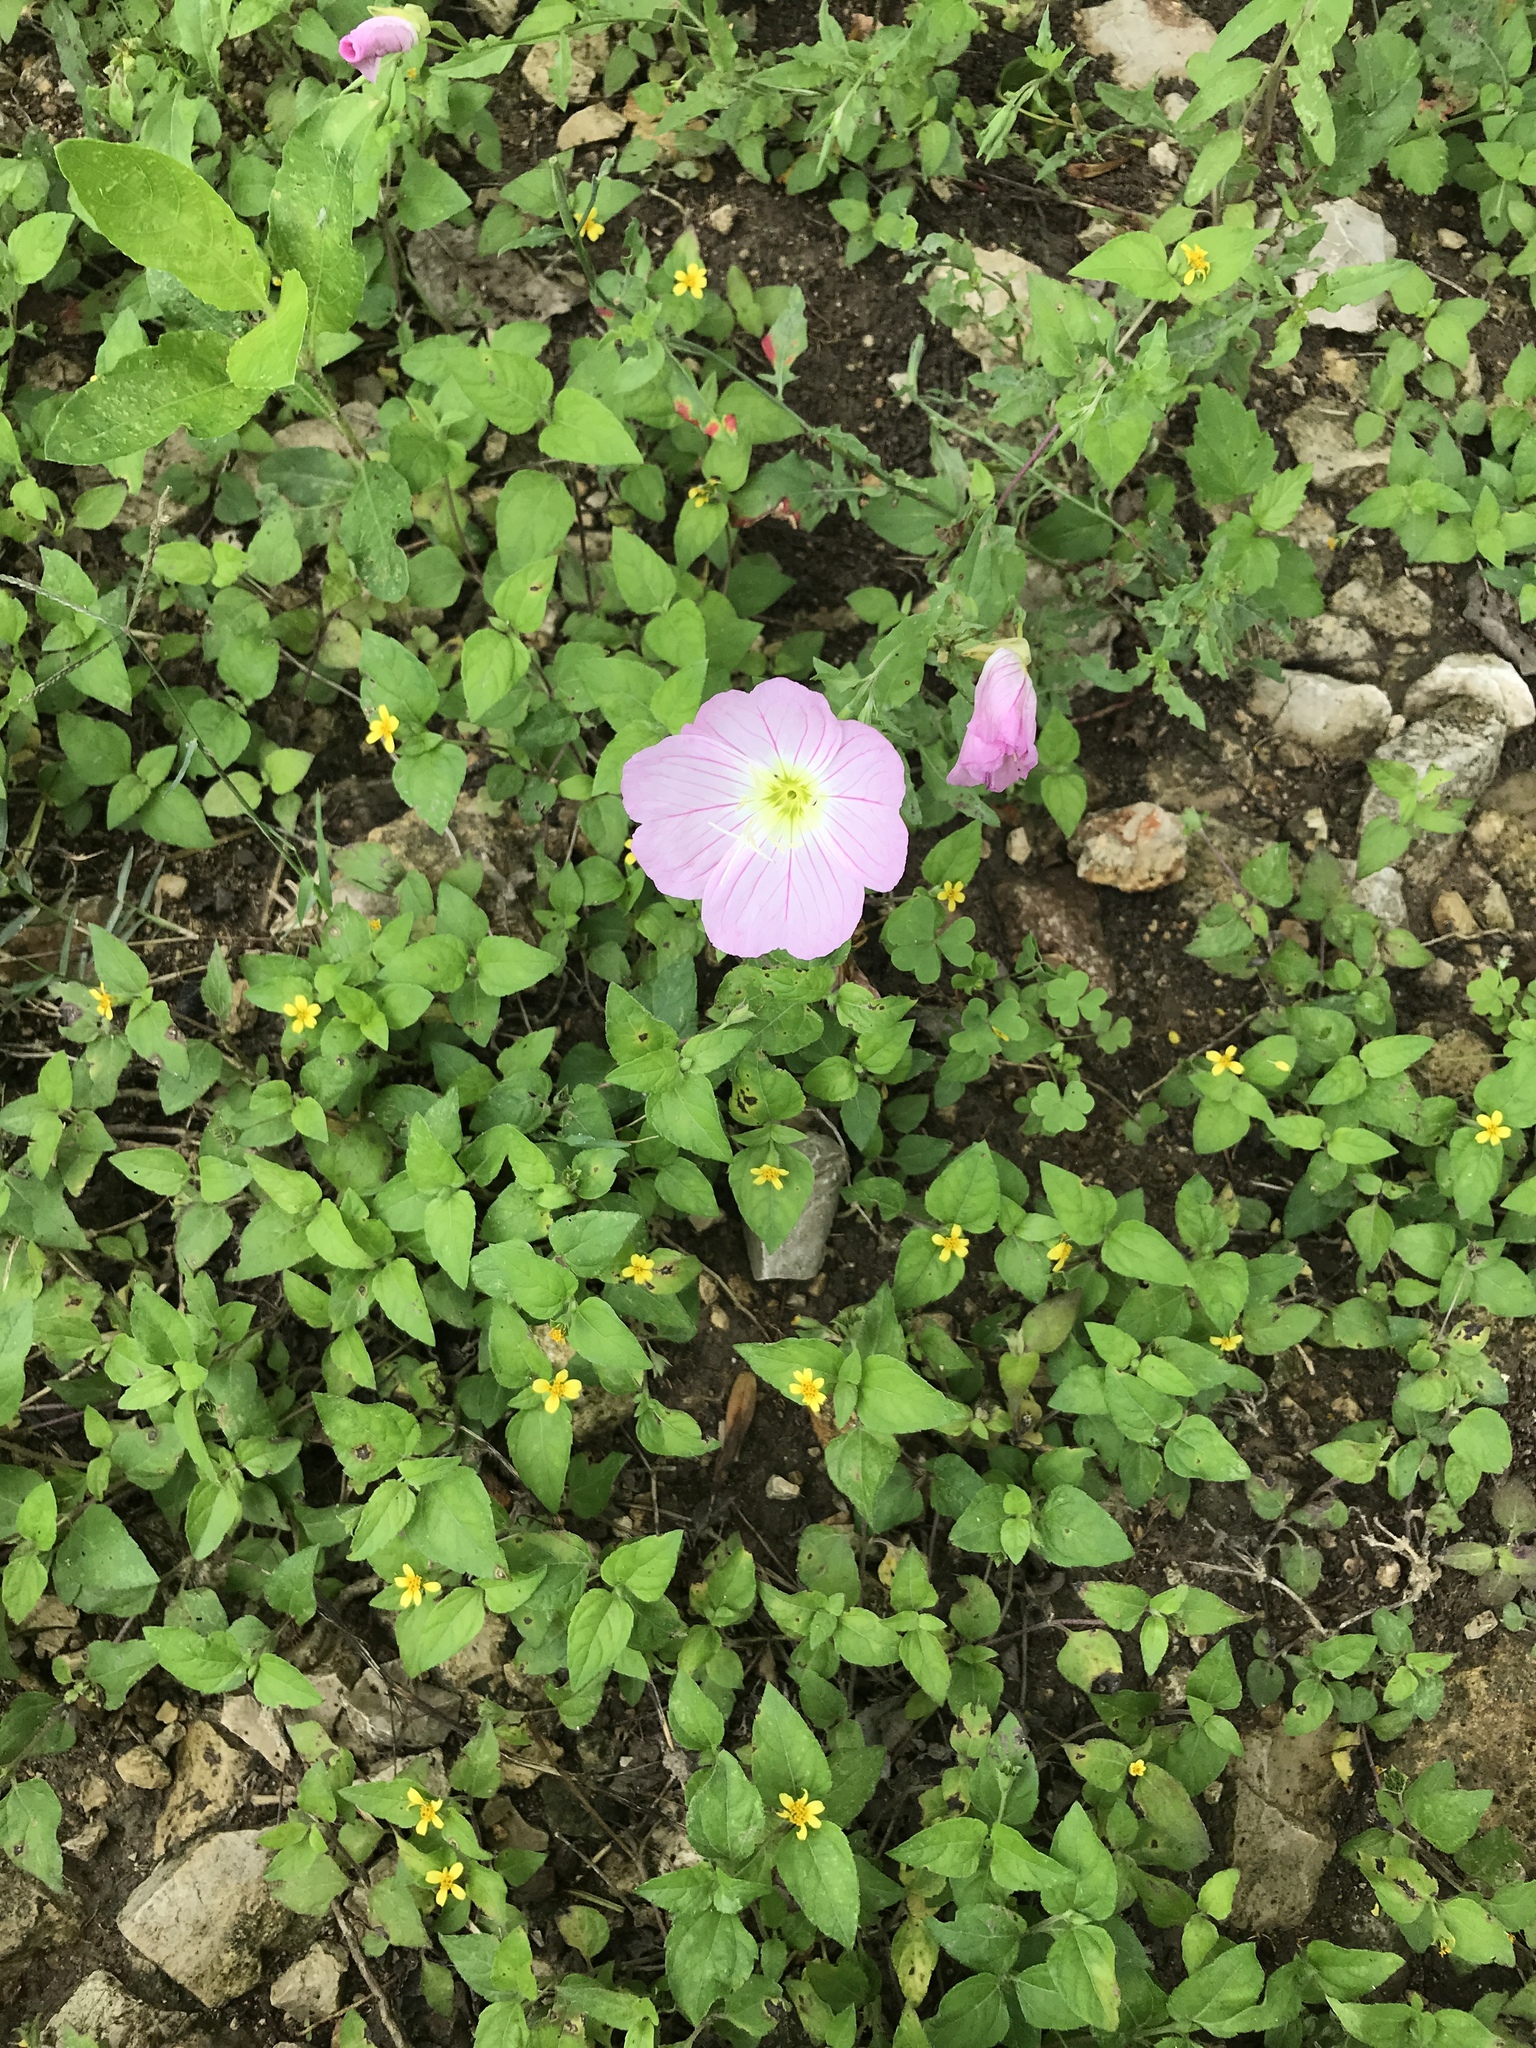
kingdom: Plantae
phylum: Tracheophyta
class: Magnoliopsida
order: Myrtales
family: Onagraceae
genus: Oenothera
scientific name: Oenothera speciosa
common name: White evening-primrose
